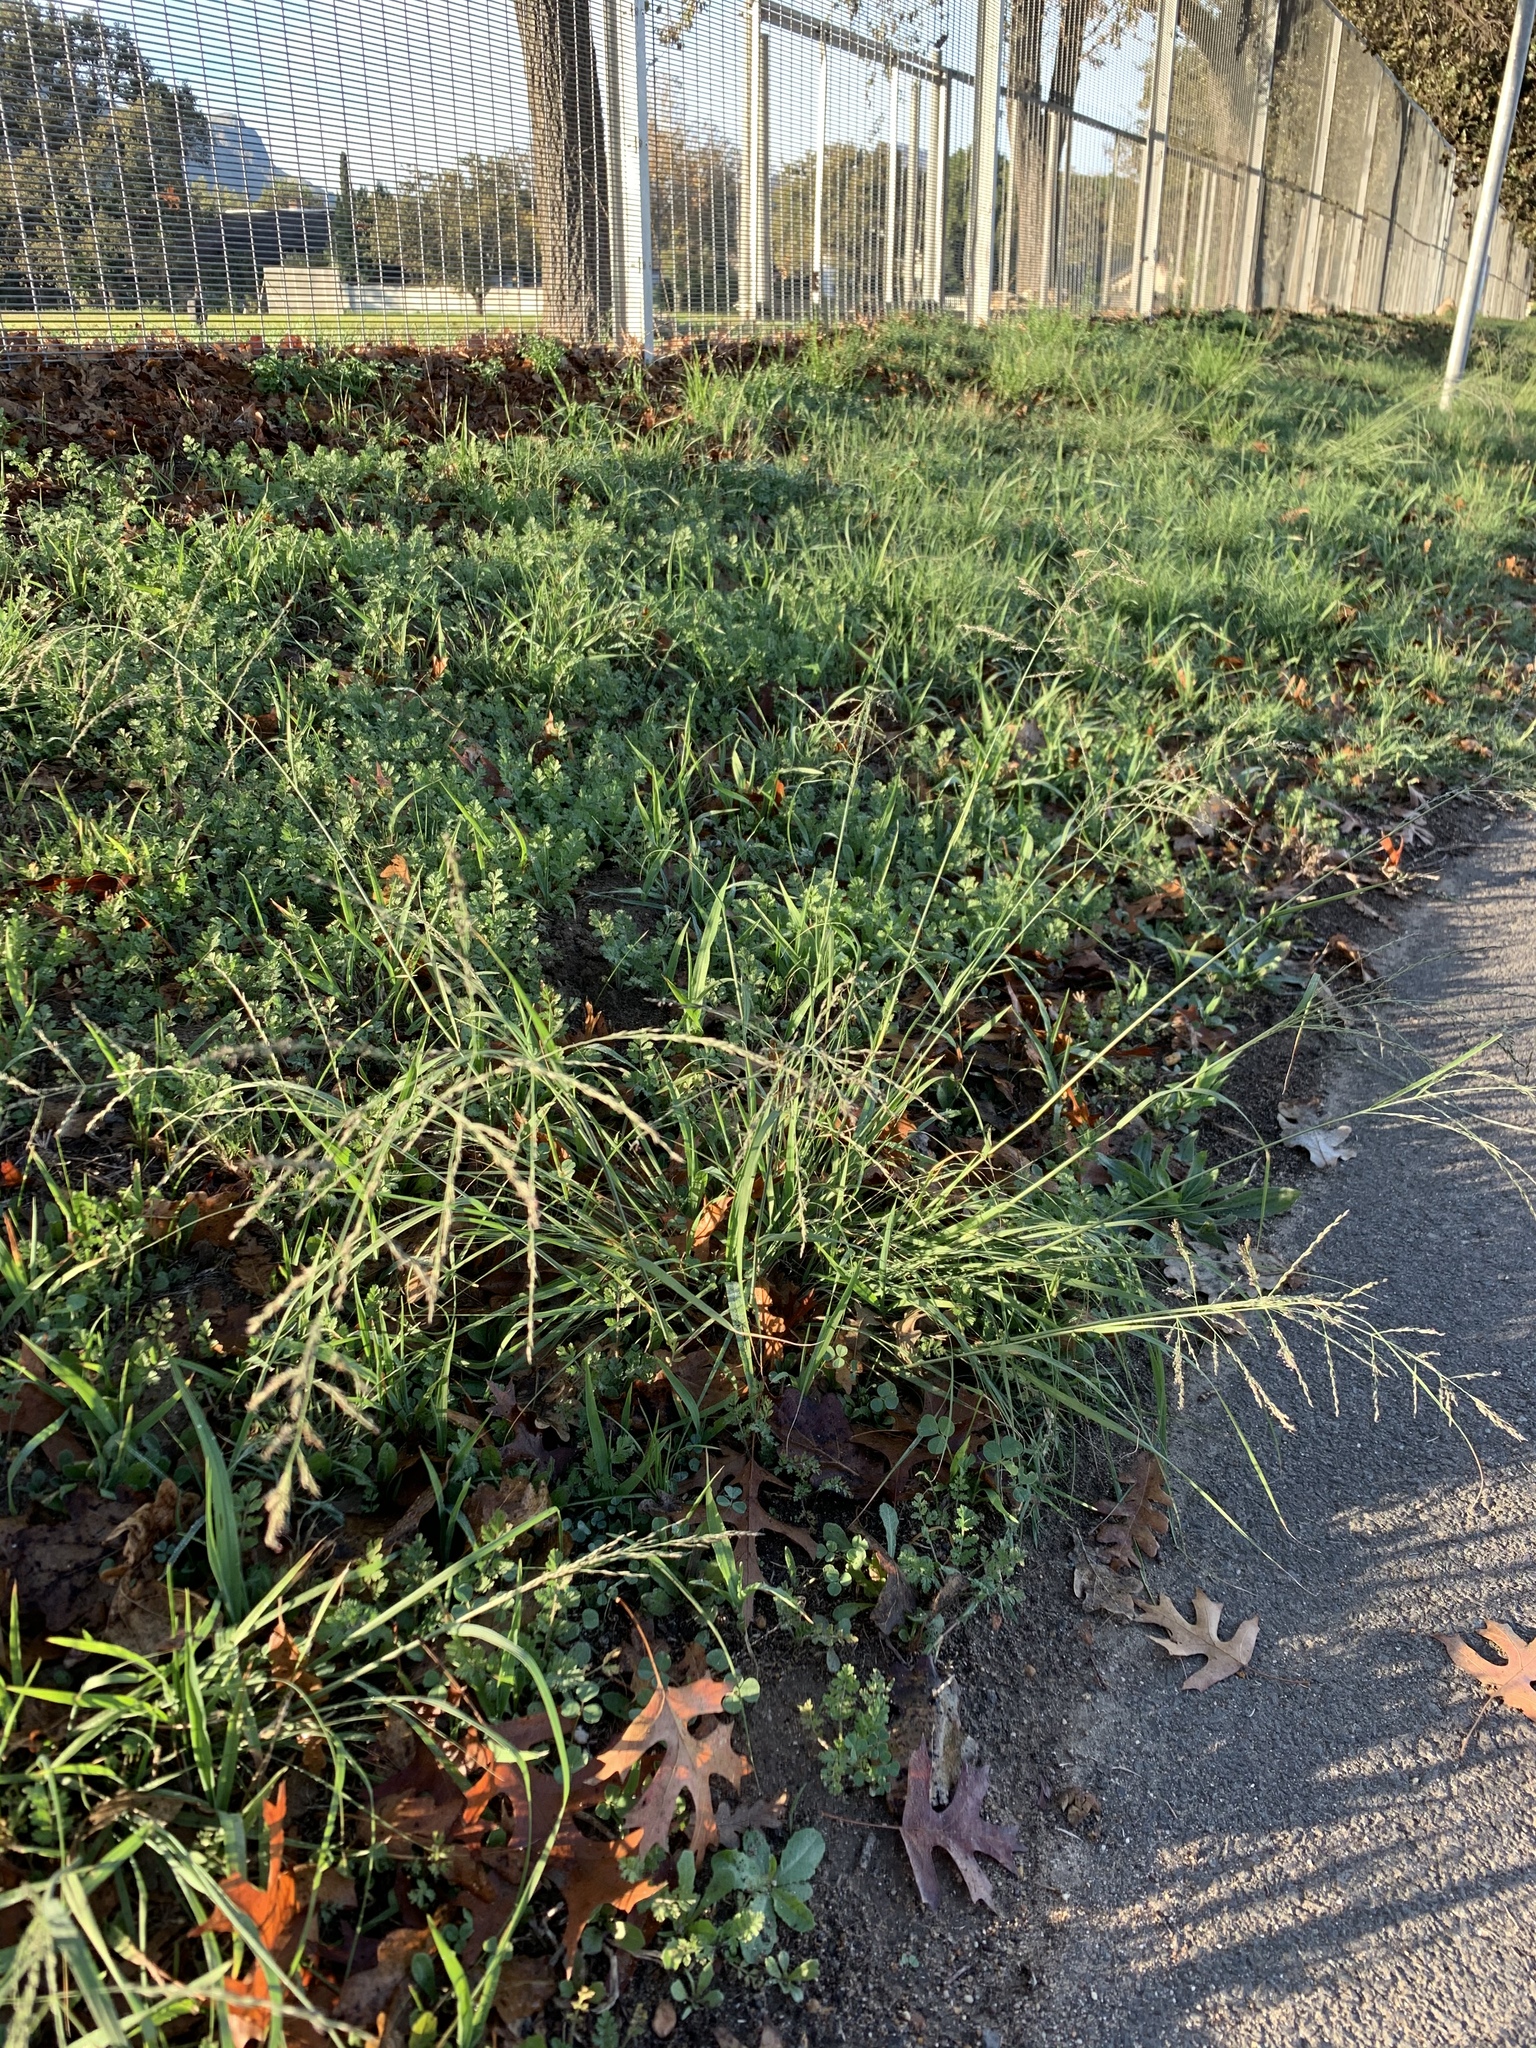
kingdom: Plantae
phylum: Tracheophyta
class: Liliopsida
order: Poales
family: Poaceae
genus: Eragrostis
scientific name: Eragrostis curvula
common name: African love-grass
